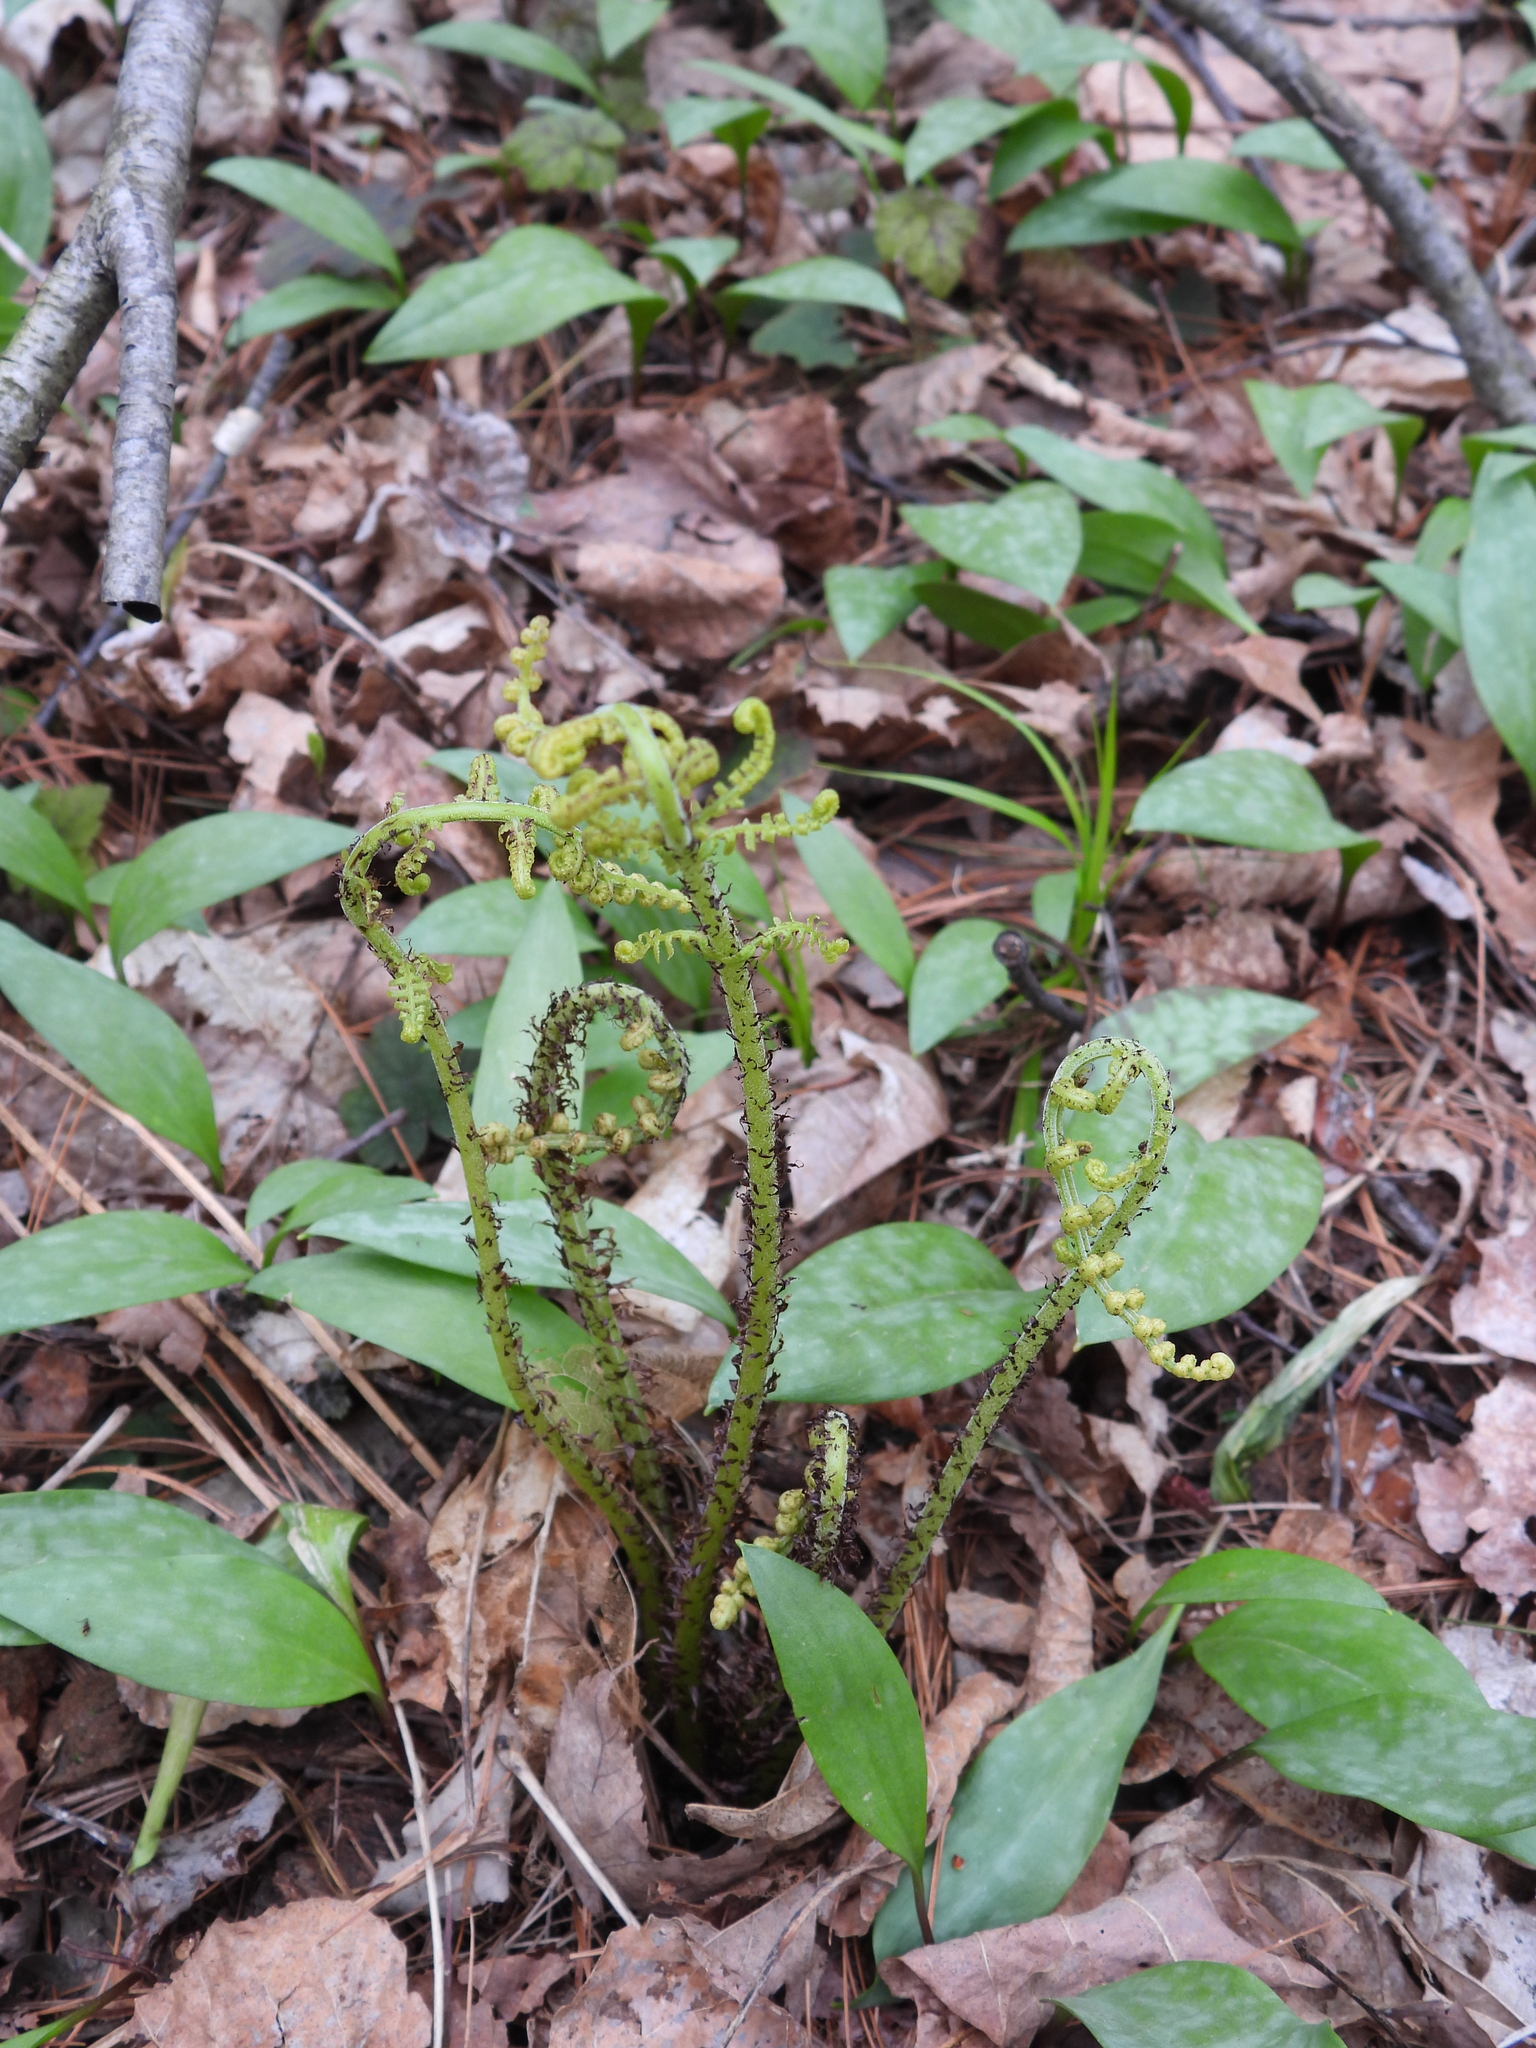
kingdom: Plantae
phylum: Tracheophyta
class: Polypodiopsida
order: Polypodiales
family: Athyriaceae
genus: Athyrium
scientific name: Athyrium angustum
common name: Northern lady fern
